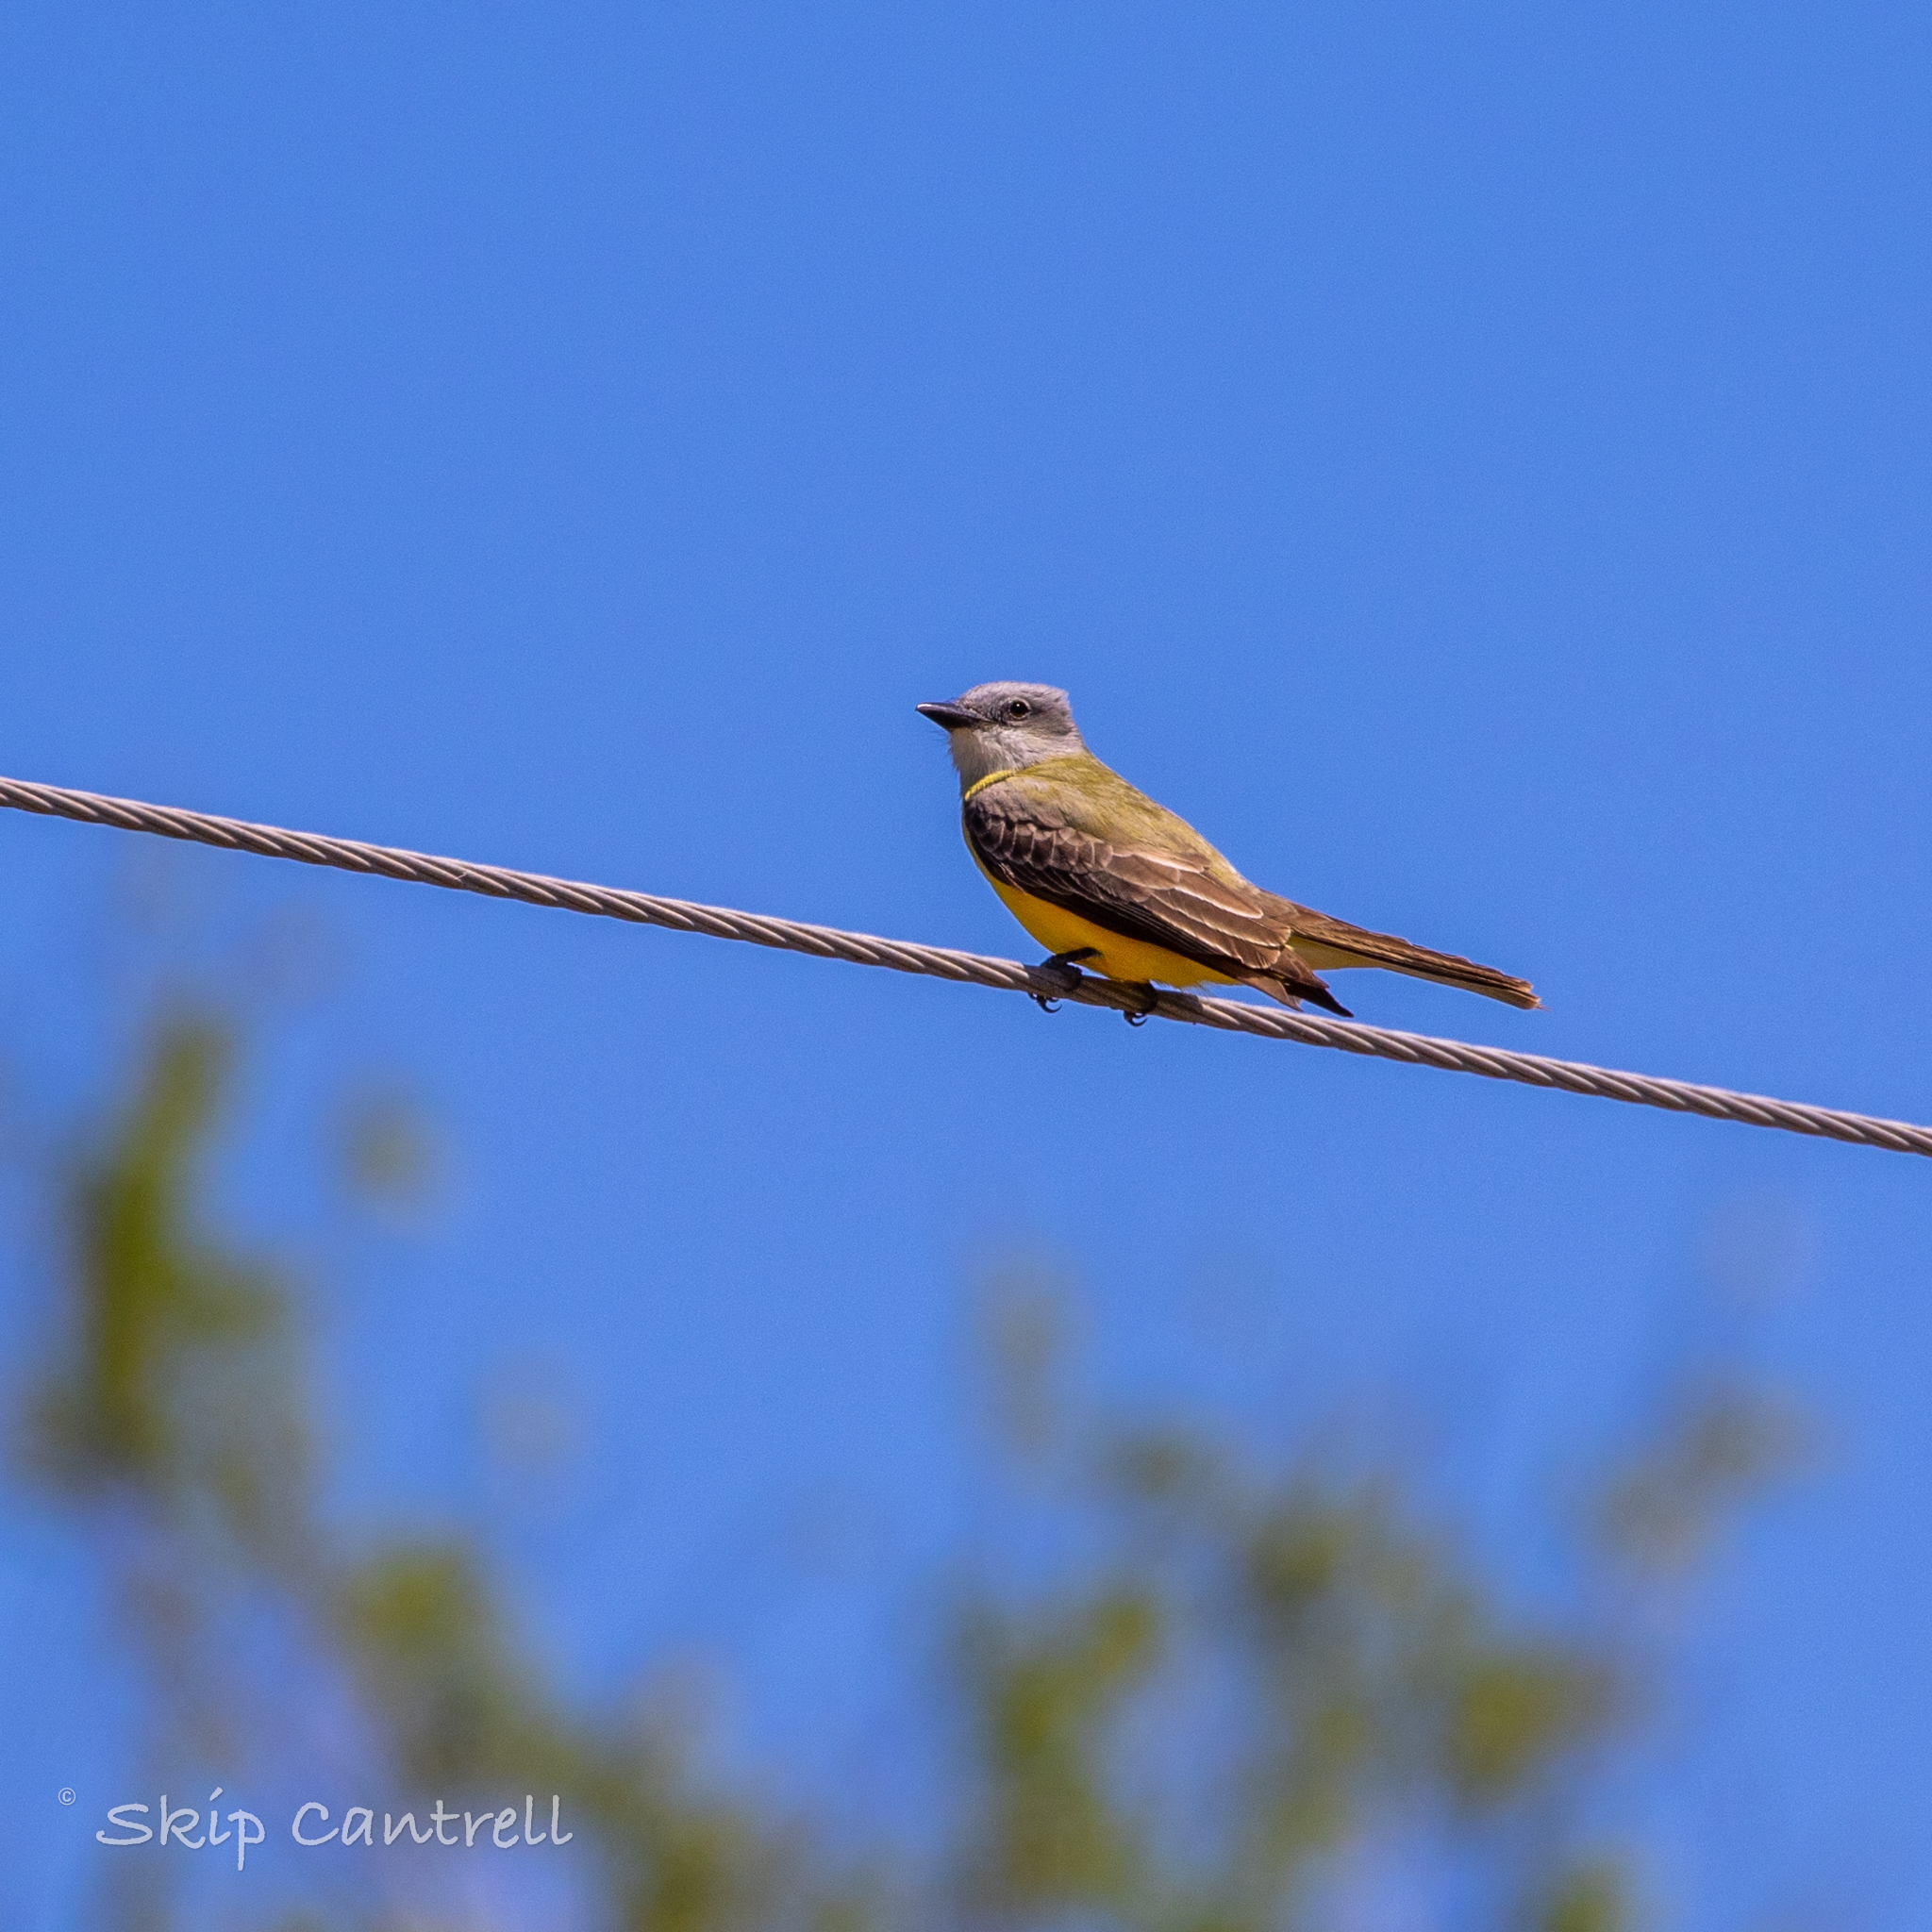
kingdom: Animalia
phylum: Chordata
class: Aves
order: Passeriformes
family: Tyrannidae
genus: Tyrannus
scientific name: Tyrannus couchii
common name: Couch's kingbird
